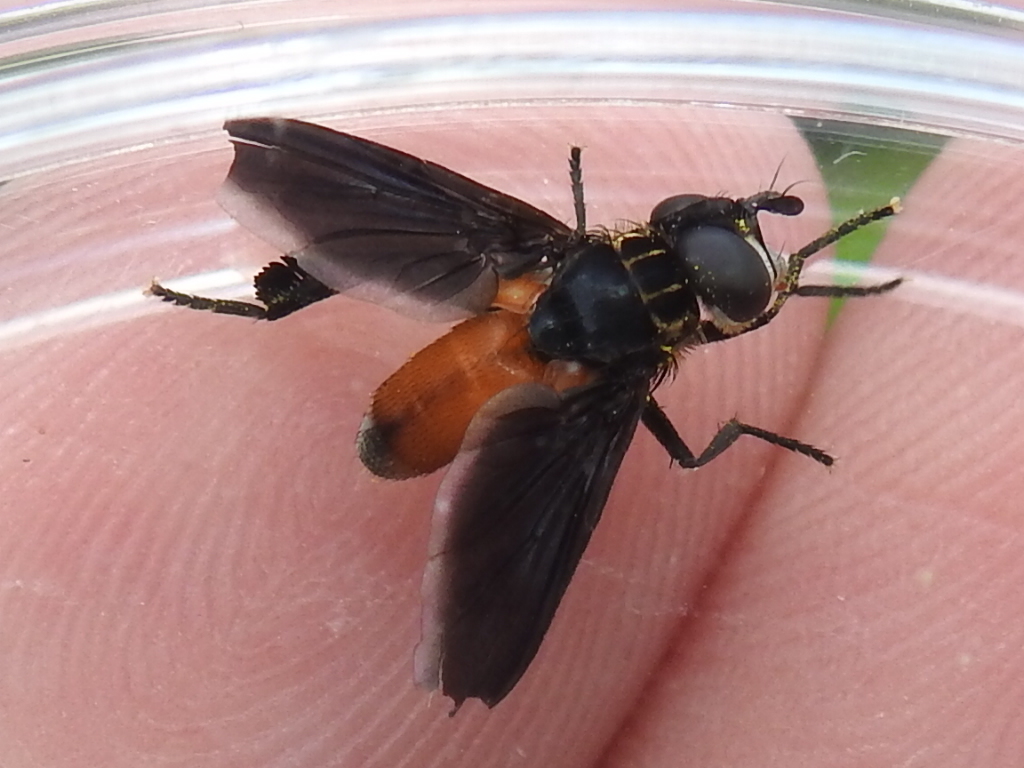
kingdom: Animalia
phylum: Arthropoda
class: Insecta
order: Diptera
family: Tachinidae
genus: Trichopoda
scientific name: Trichopoda pennipes
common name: Tachinid fly
